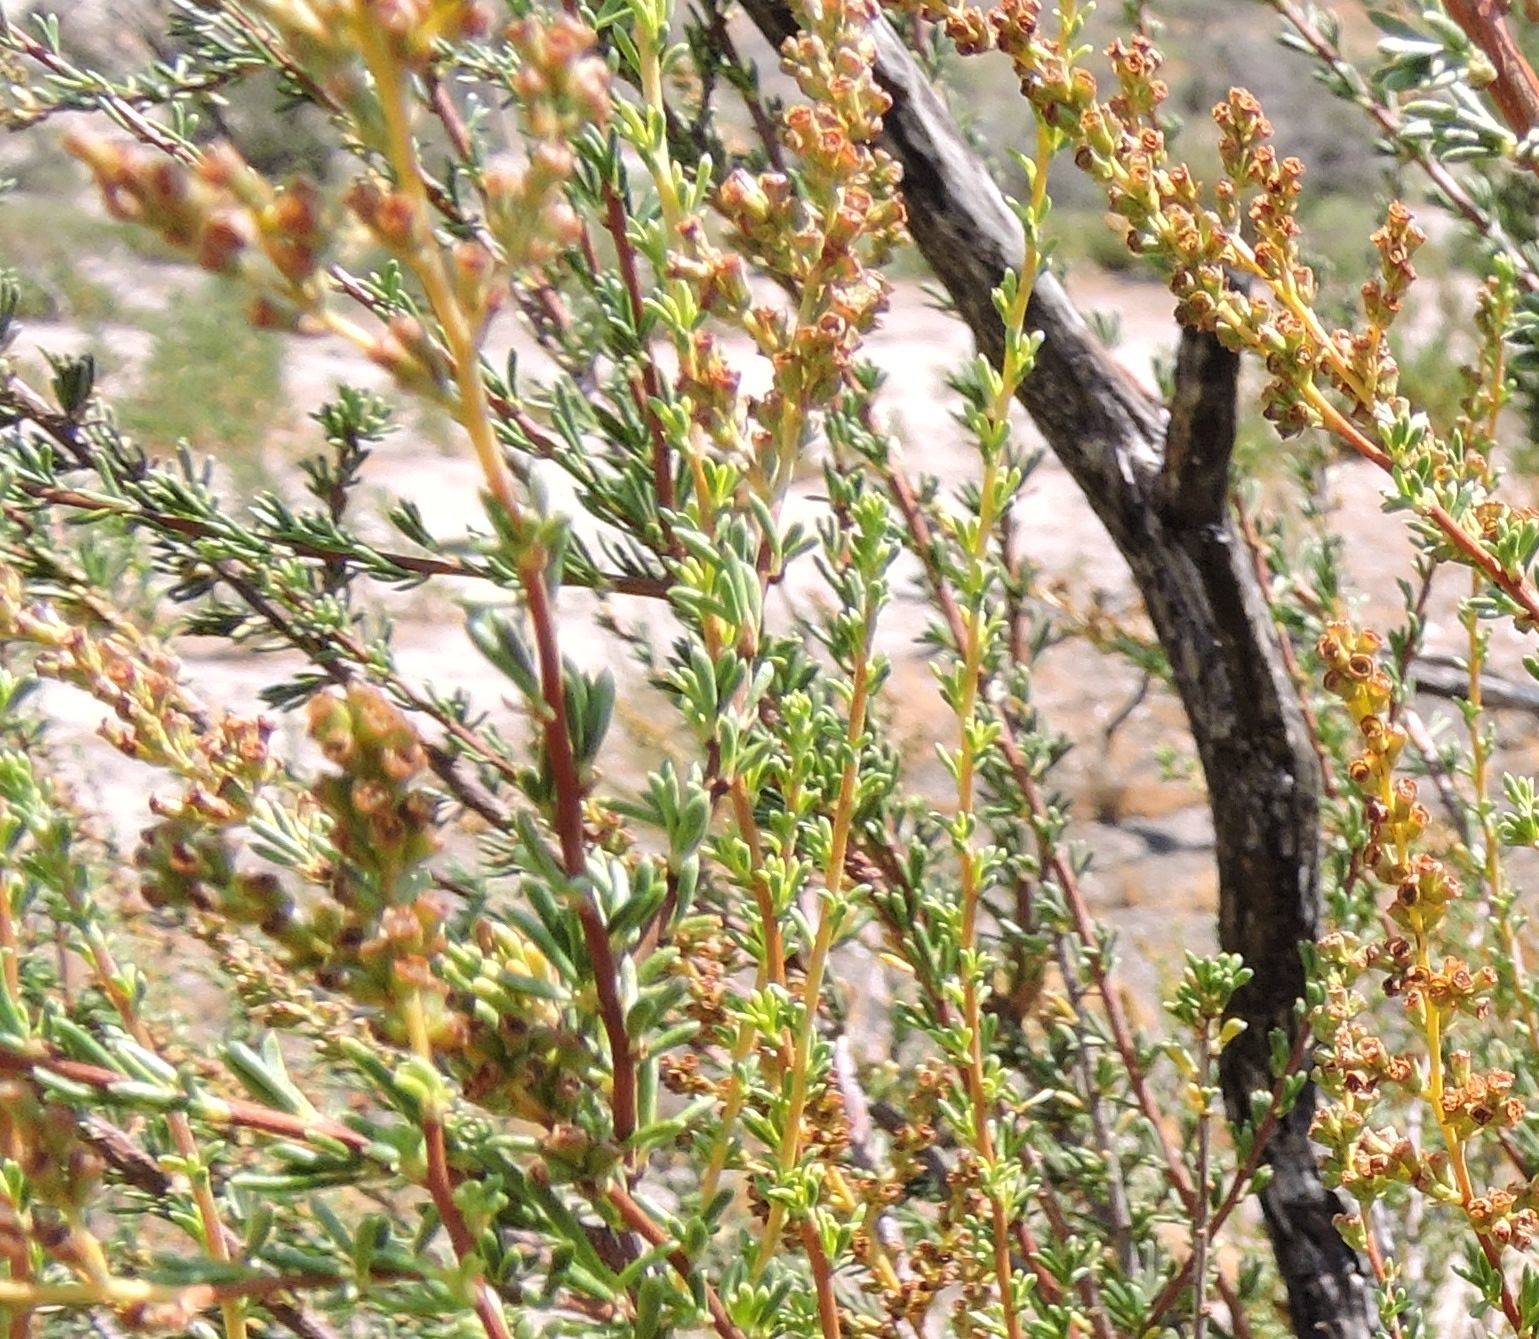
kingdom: Plantae
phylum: Tracheophyta
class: Magnoliopsida
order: Rosales
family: Rosaceae
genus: Adenostoma
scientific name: Adenostoma fasciculatum
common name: Chamise
